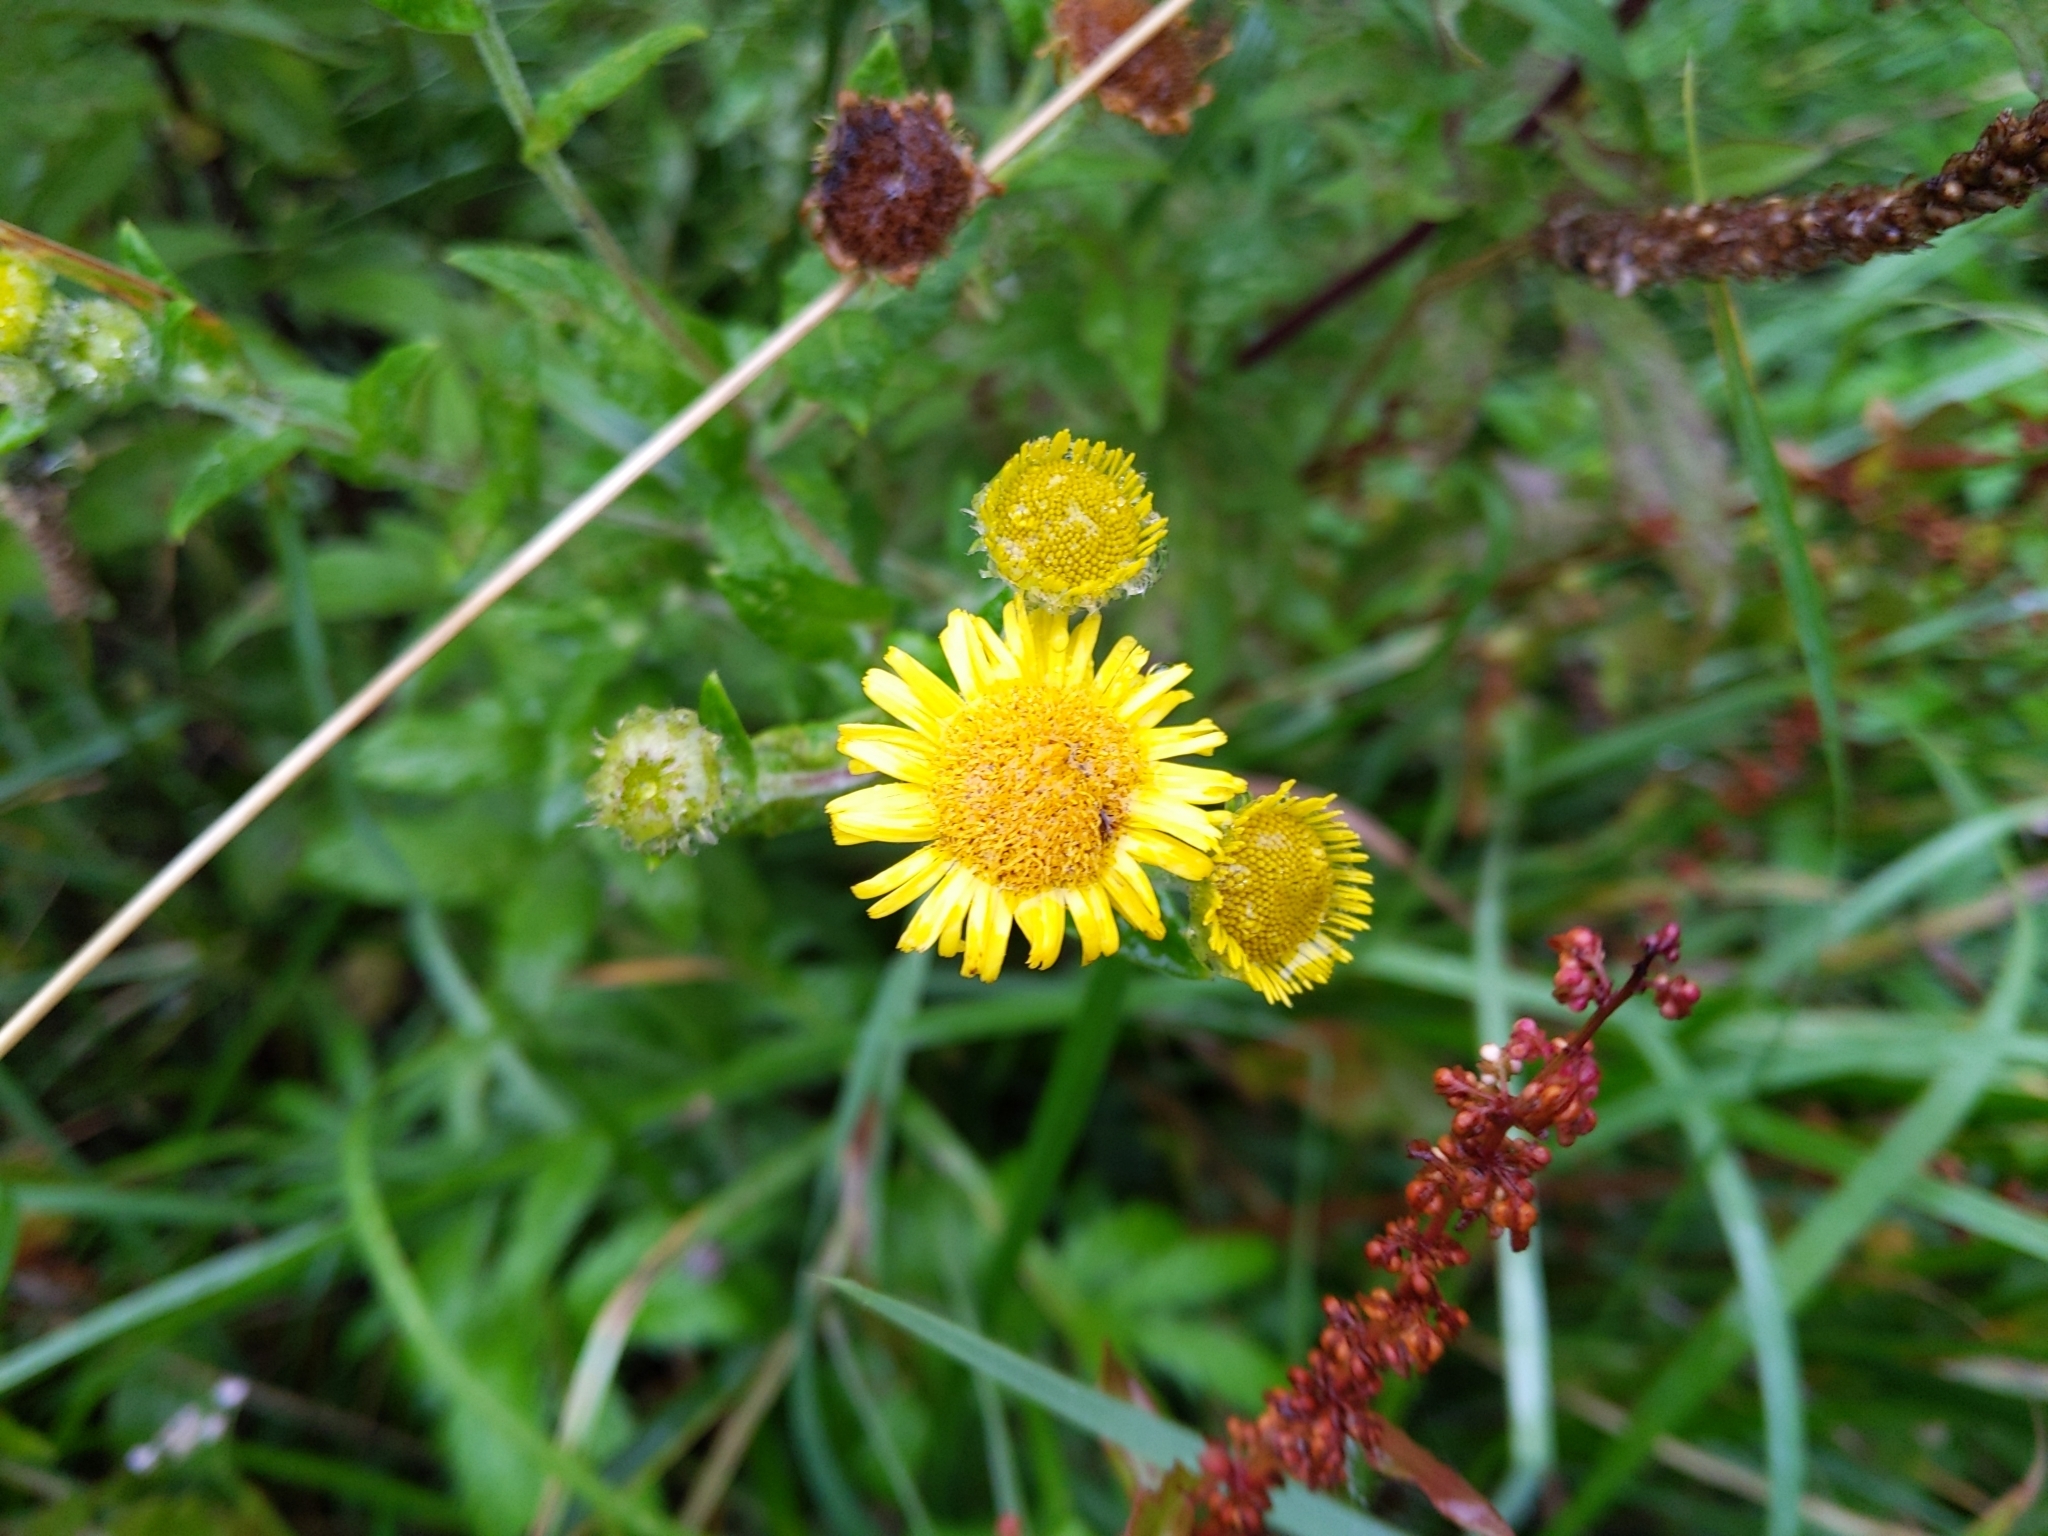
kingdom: Plantae
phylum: Tracheophyta
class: Magnoliopsida
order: Asterales
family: Asteraceae
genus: Pulicaria
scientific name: Pulicaria dysenterica
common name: Common fleabane
